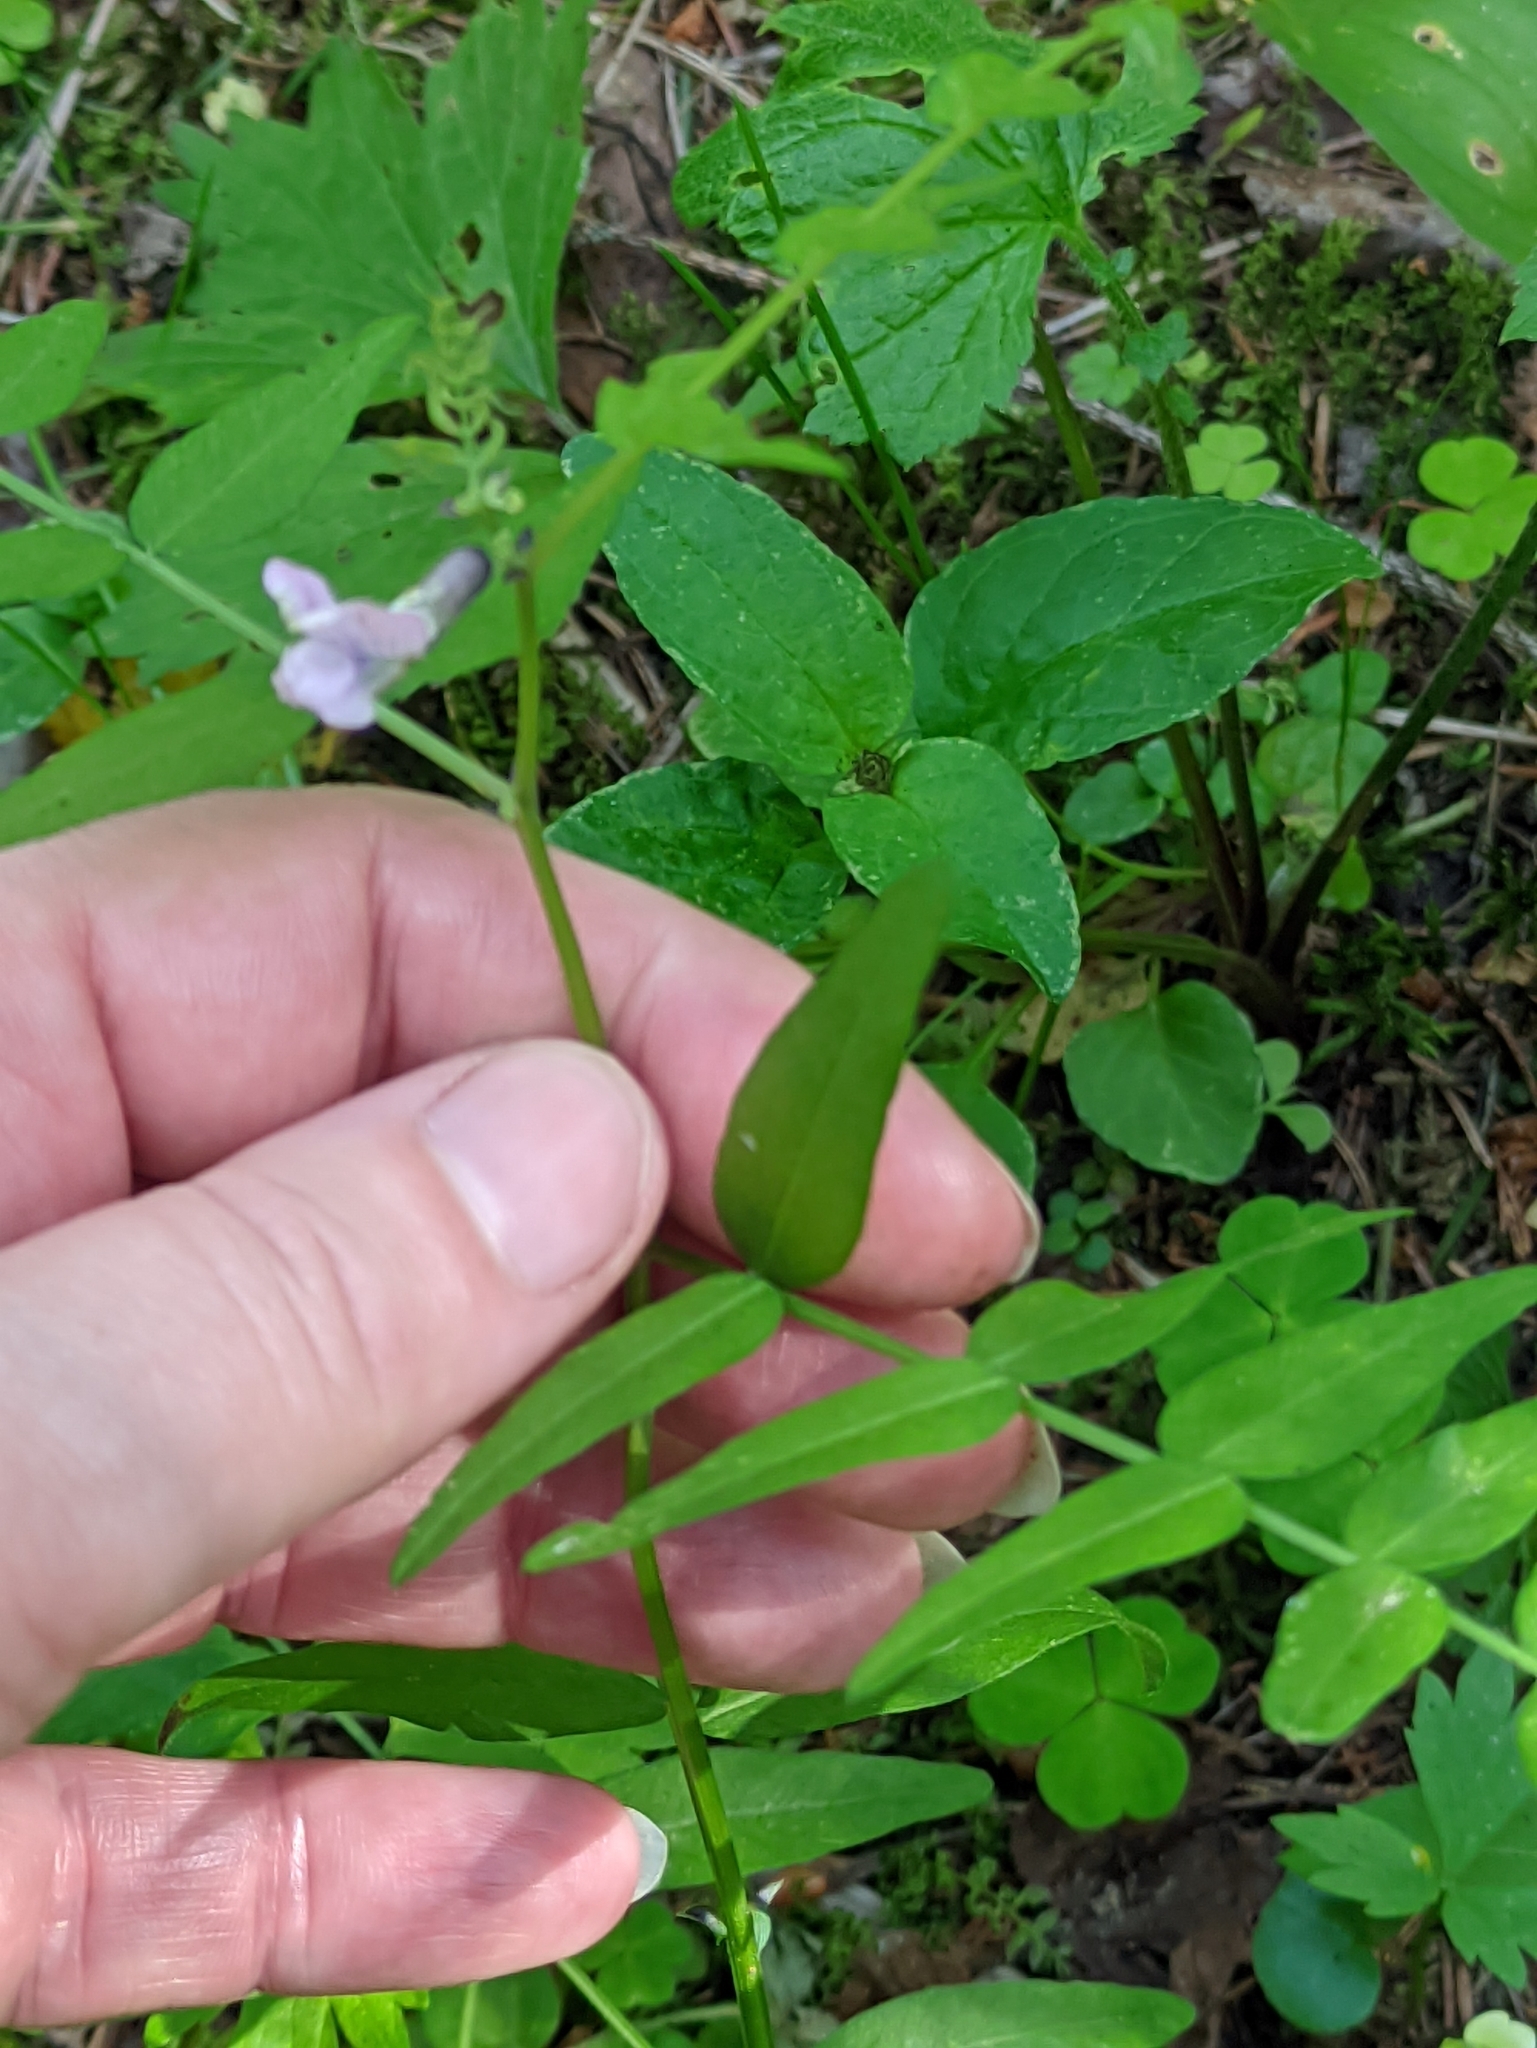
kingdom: Plantae
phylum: Tracheophyta
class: Magnoliopsida
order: Fabales
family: Fabaceae
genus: Vicia
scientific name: Vicia sepium
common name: Bush vetch
